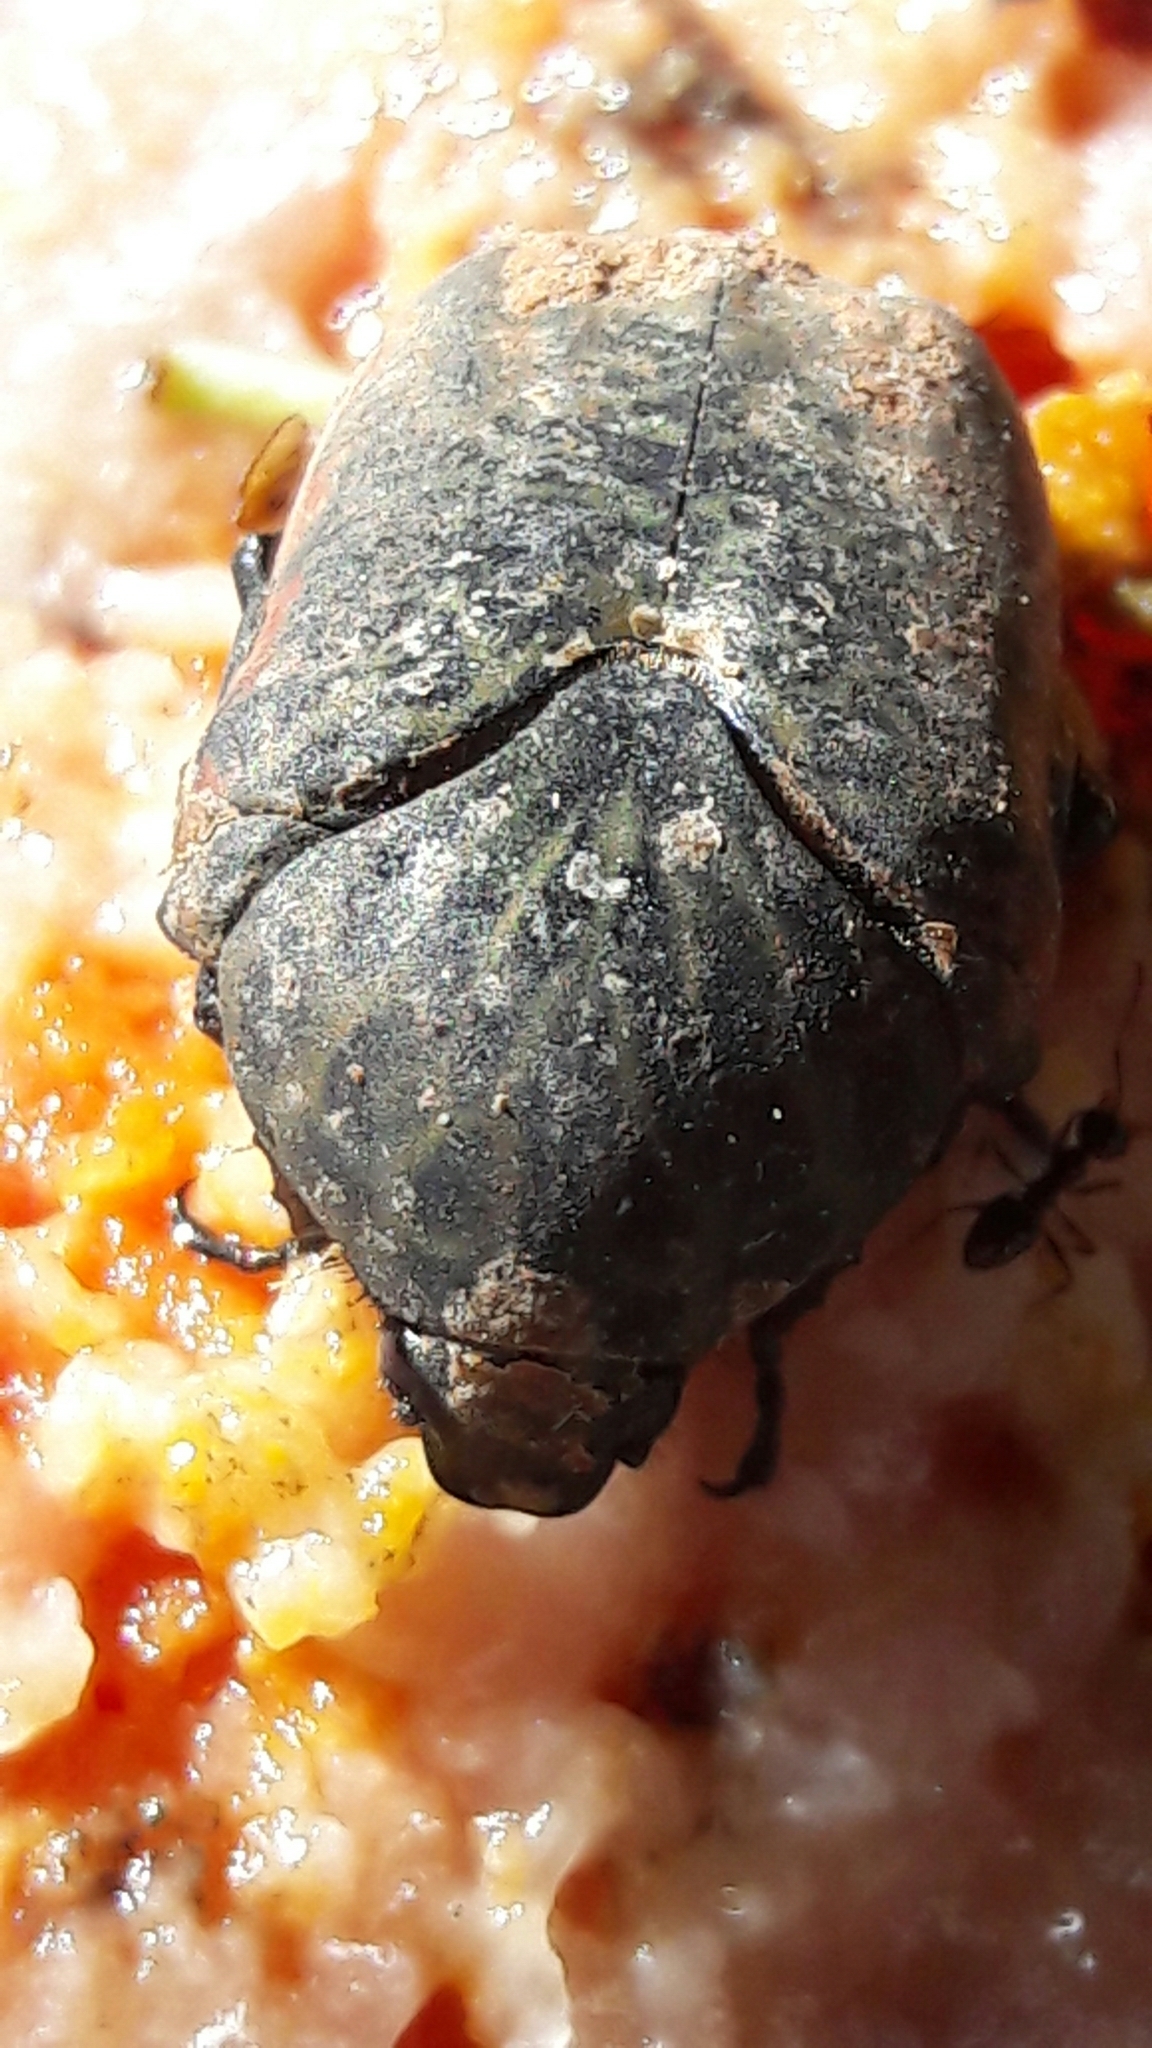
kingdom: Animalia
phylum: Arthropoda
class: Insecta
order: Coleoptera
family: Scarabaeidae
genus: Gymnetis
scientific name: Gymnetis rufilatris
